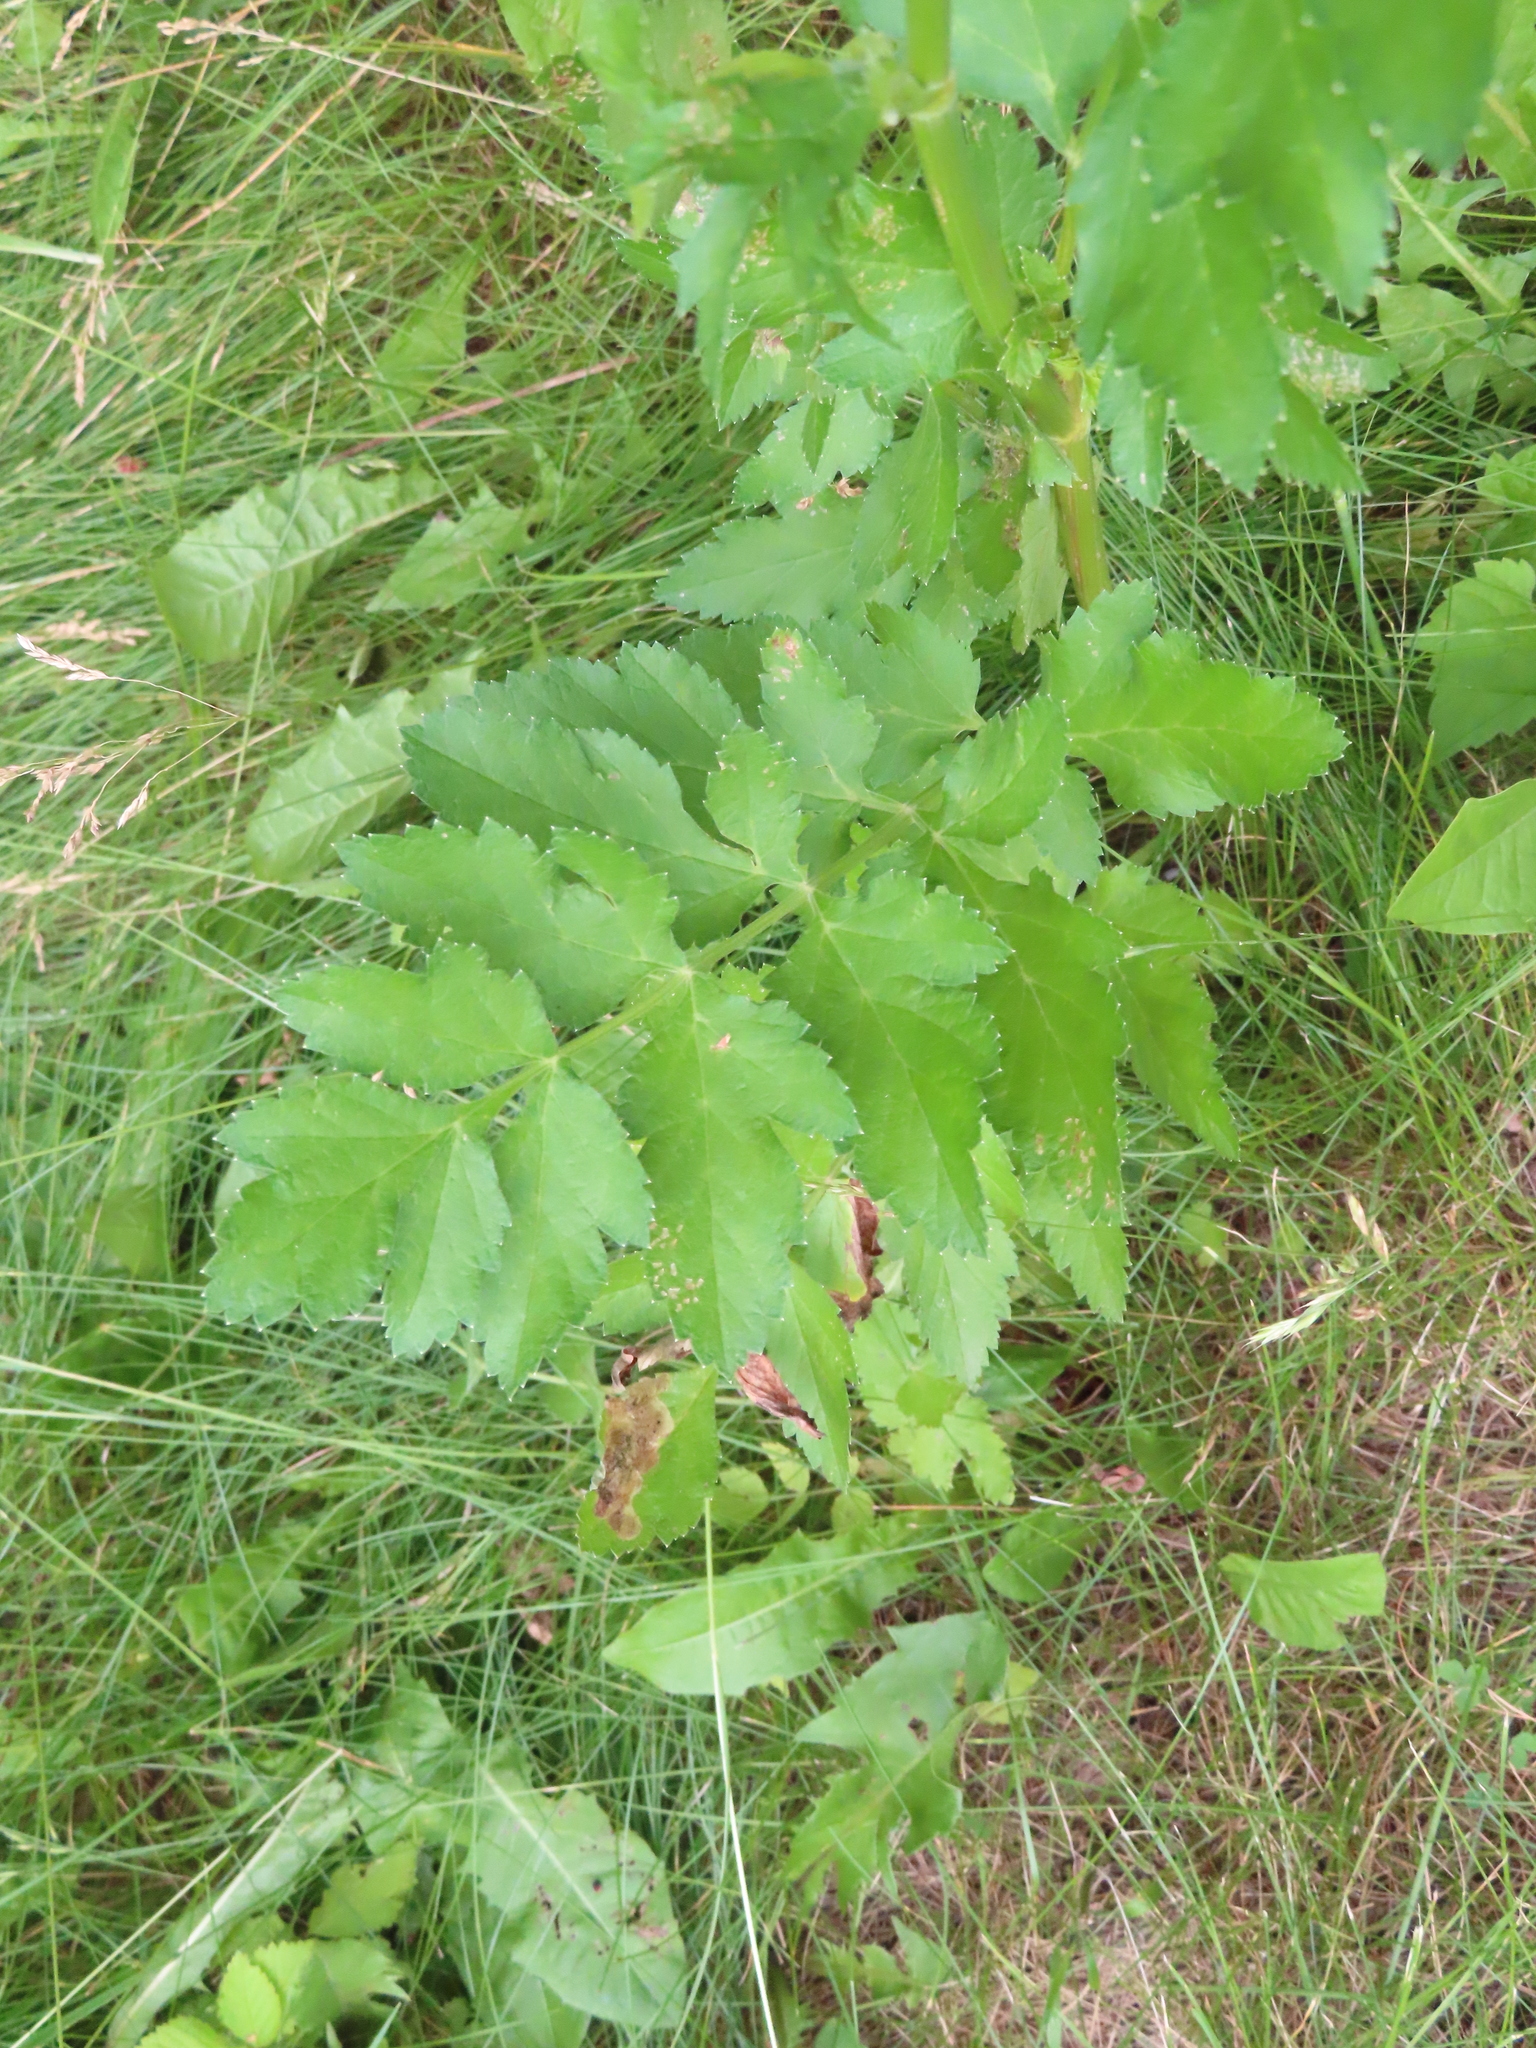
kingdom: Plantae
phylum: Tracheophyta
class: Magnoliopsida
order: Apiales
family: Apiaceae
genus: Pastinaca
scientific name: Pastinaca sativa
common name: Wild parsnip
